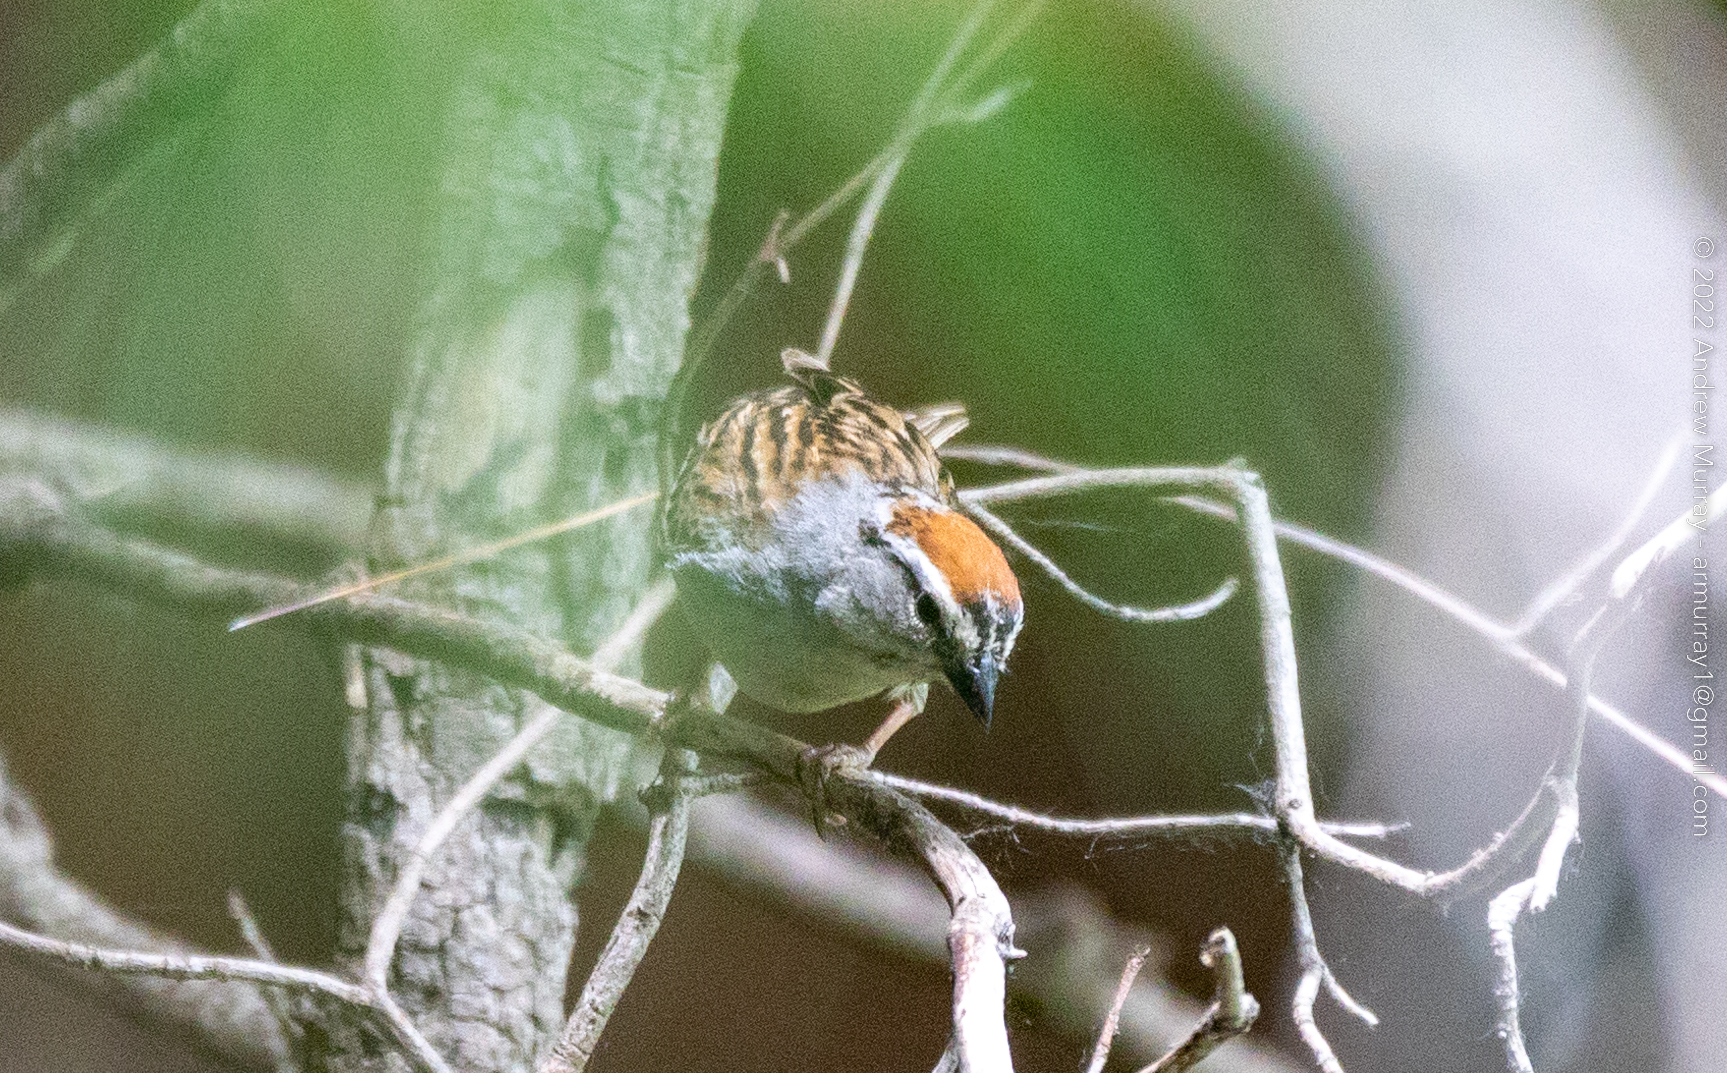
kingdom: Animalia
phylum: Chordata
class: Aves
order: Passeriformes
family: Passerellidae
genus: Spizella
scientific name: Spizella passerina
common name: Chipping sparrow
